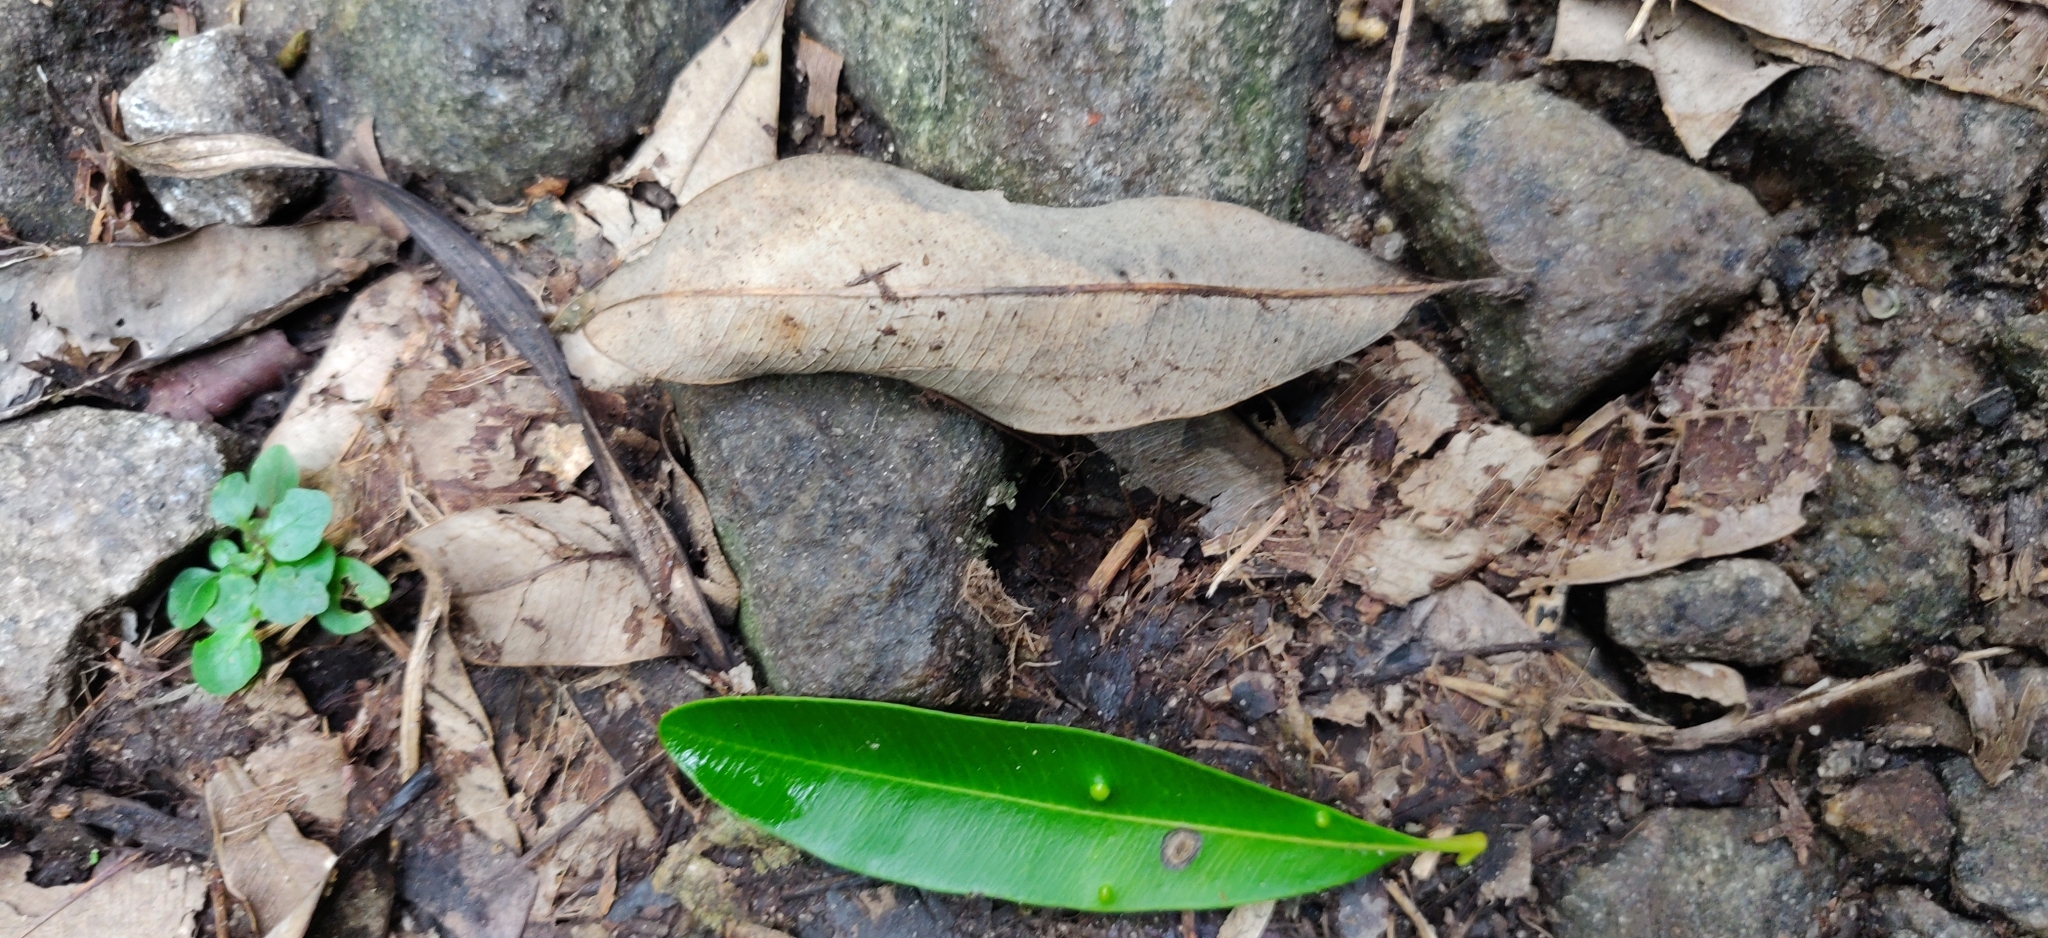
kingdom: Plantae
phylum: Tracheophyta
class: Magnoliopsida
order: Gentianales
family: Apocynaceae
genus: Alstonia
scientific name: Alstonia scholaris
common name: White cheesewood
